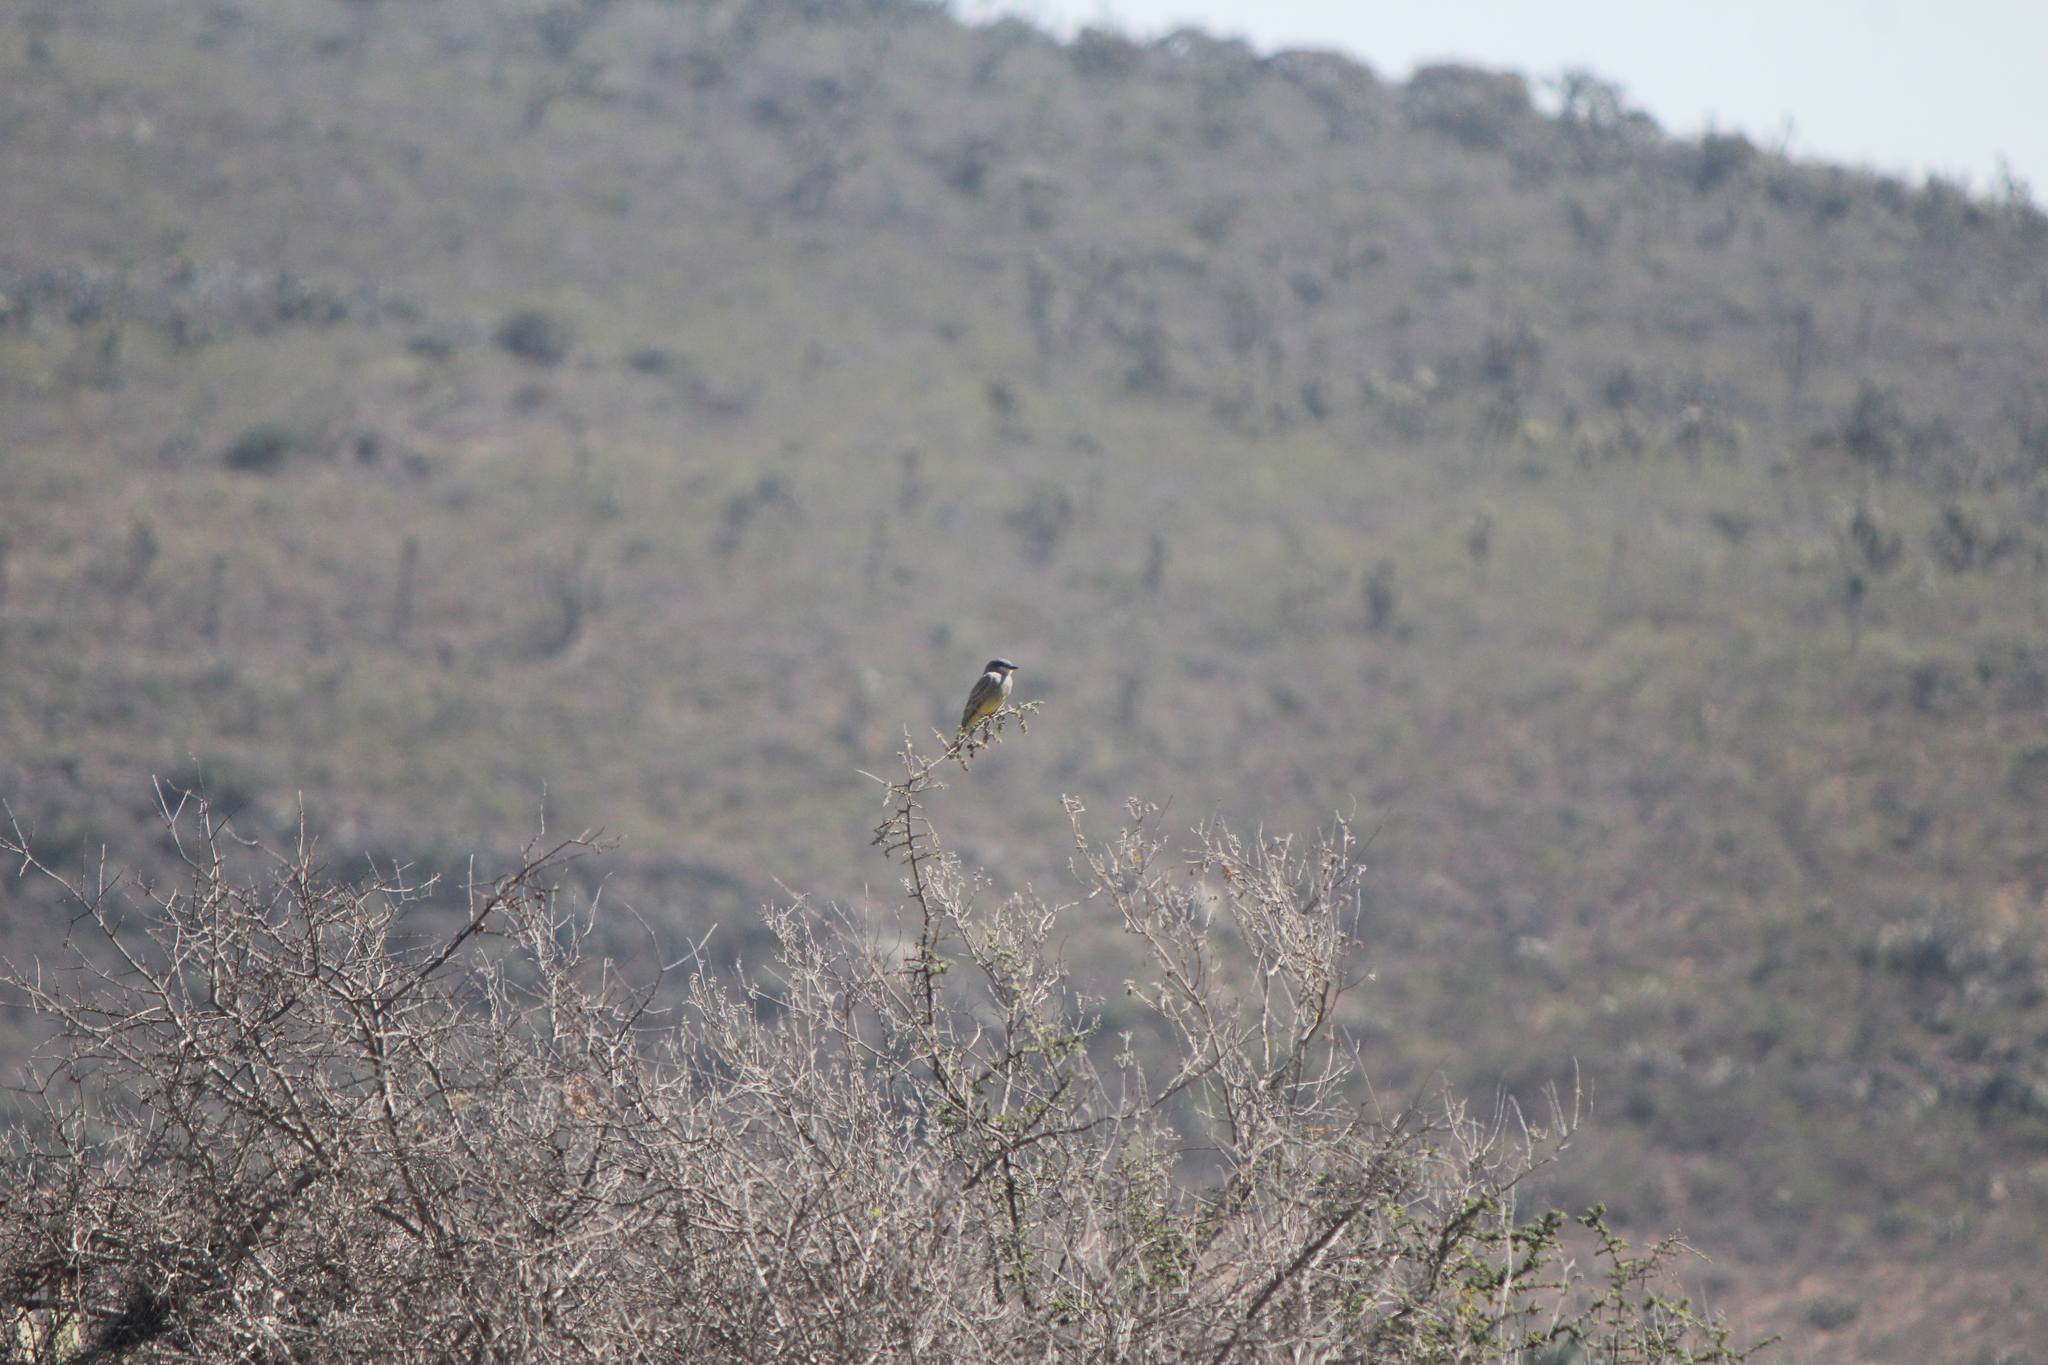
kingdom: Animalia
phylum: Chordata
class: Aves
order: Passeriformes
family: Tyrannidae
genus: Tyrannus
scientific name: Tyrannus vociferans
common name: Cassin's kingbird
